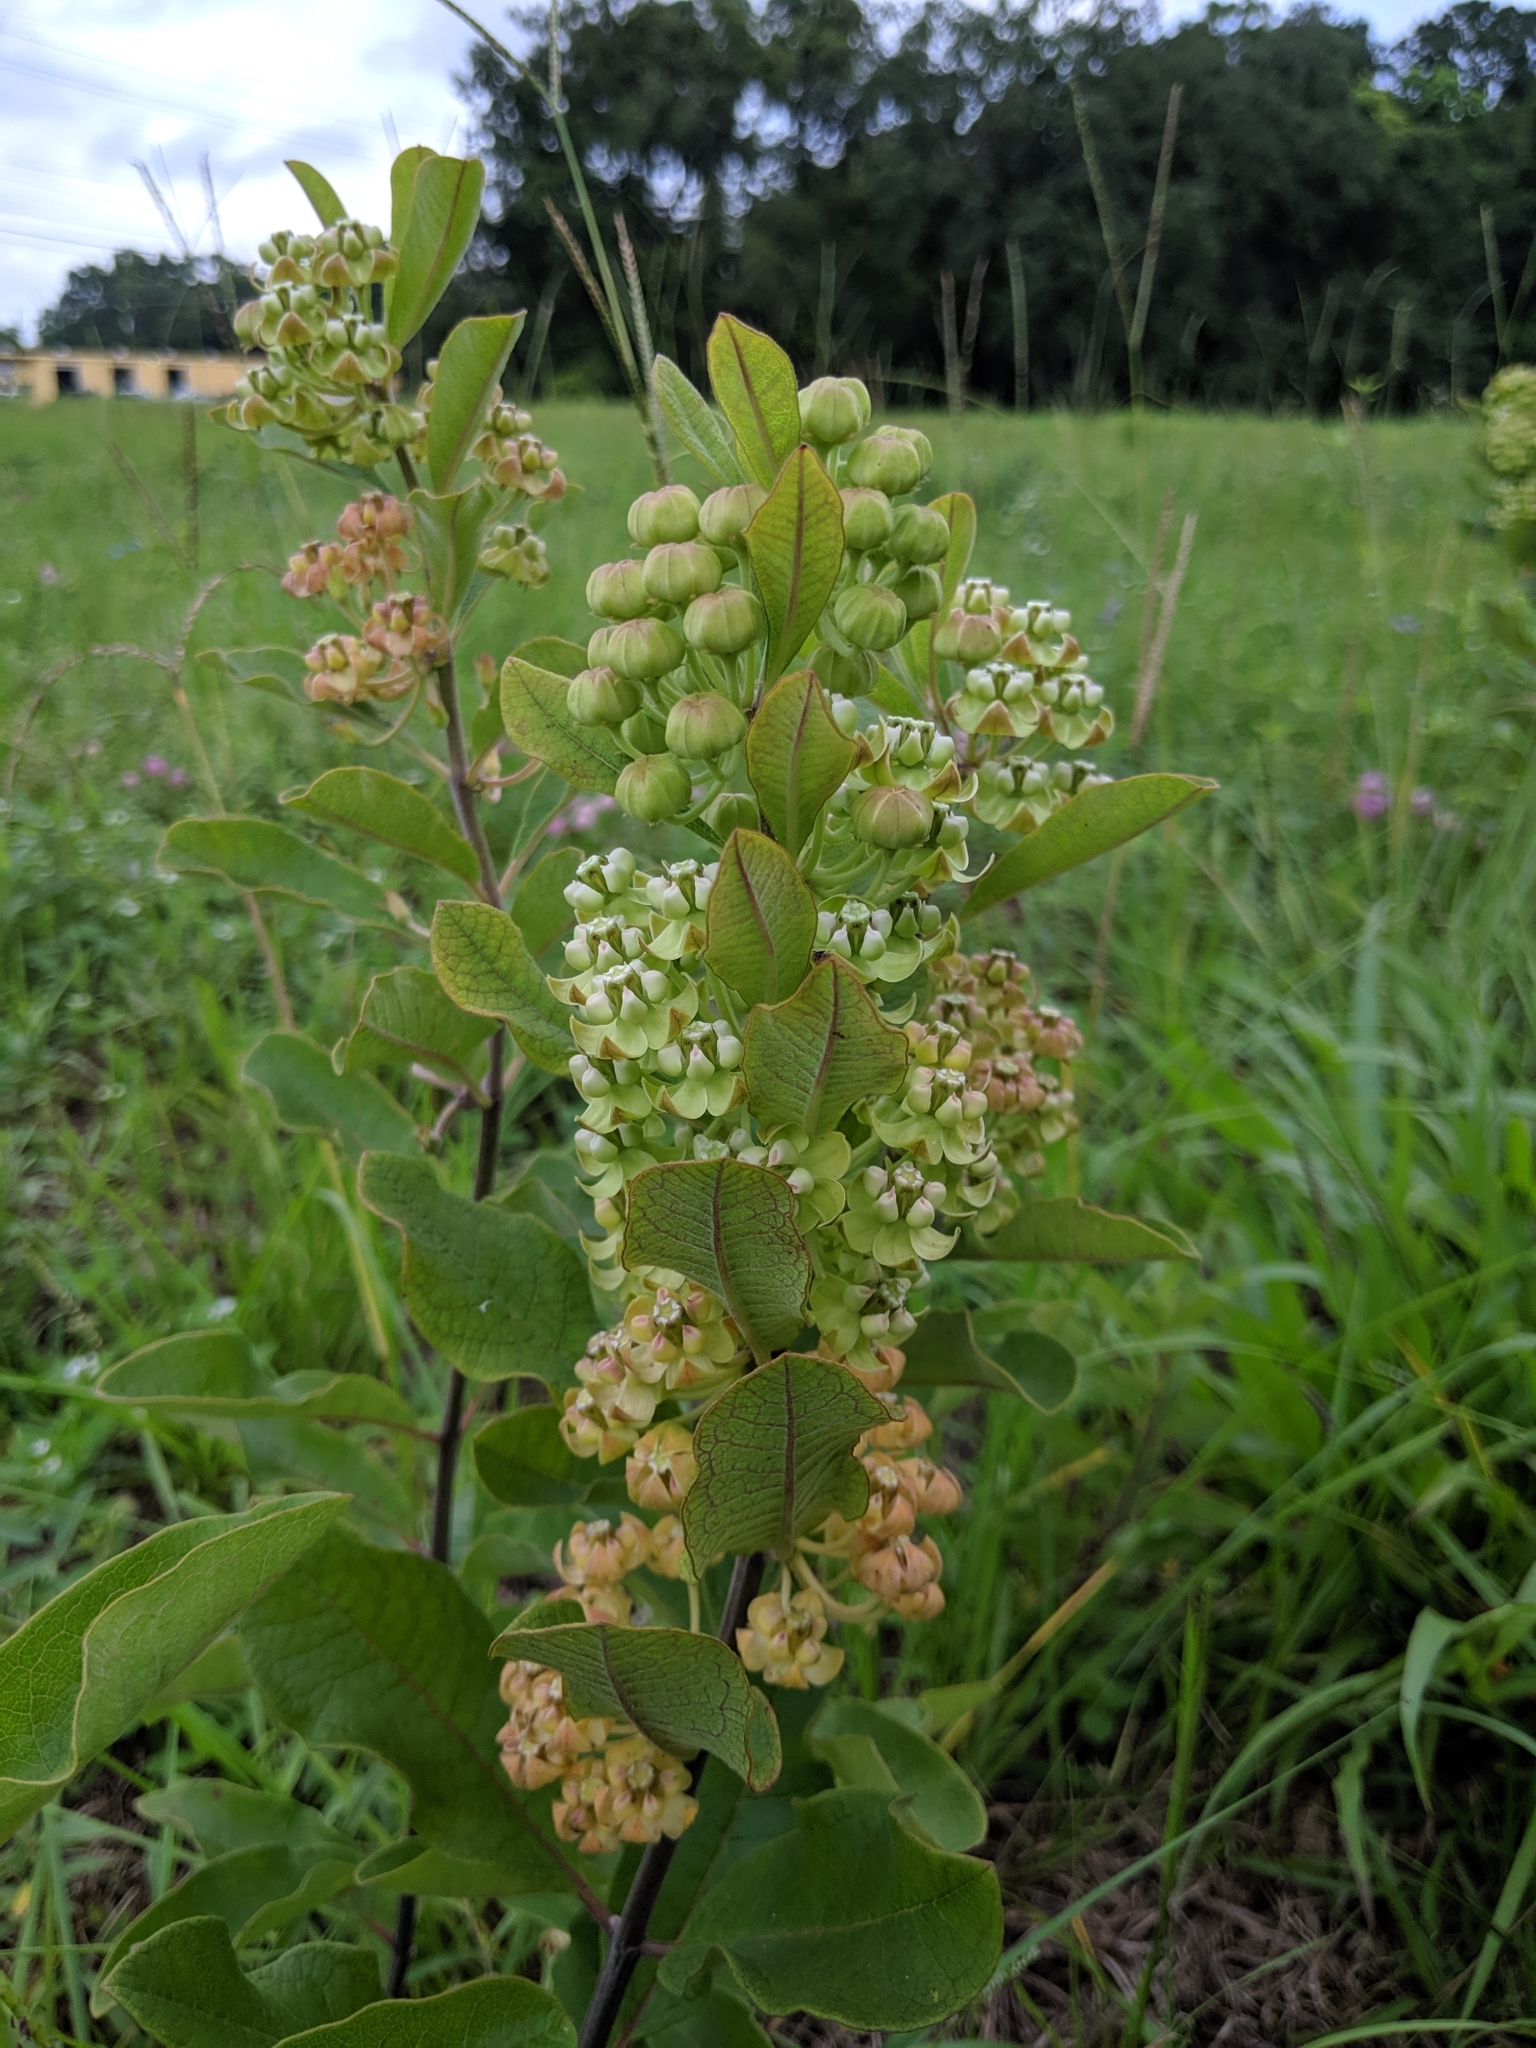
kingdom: Plantae
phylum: Tracheophyta
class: Magnoliopsida
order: Gentianales
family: Apocynaceae
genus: Asclepias
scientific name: Asclepias tomentosa
